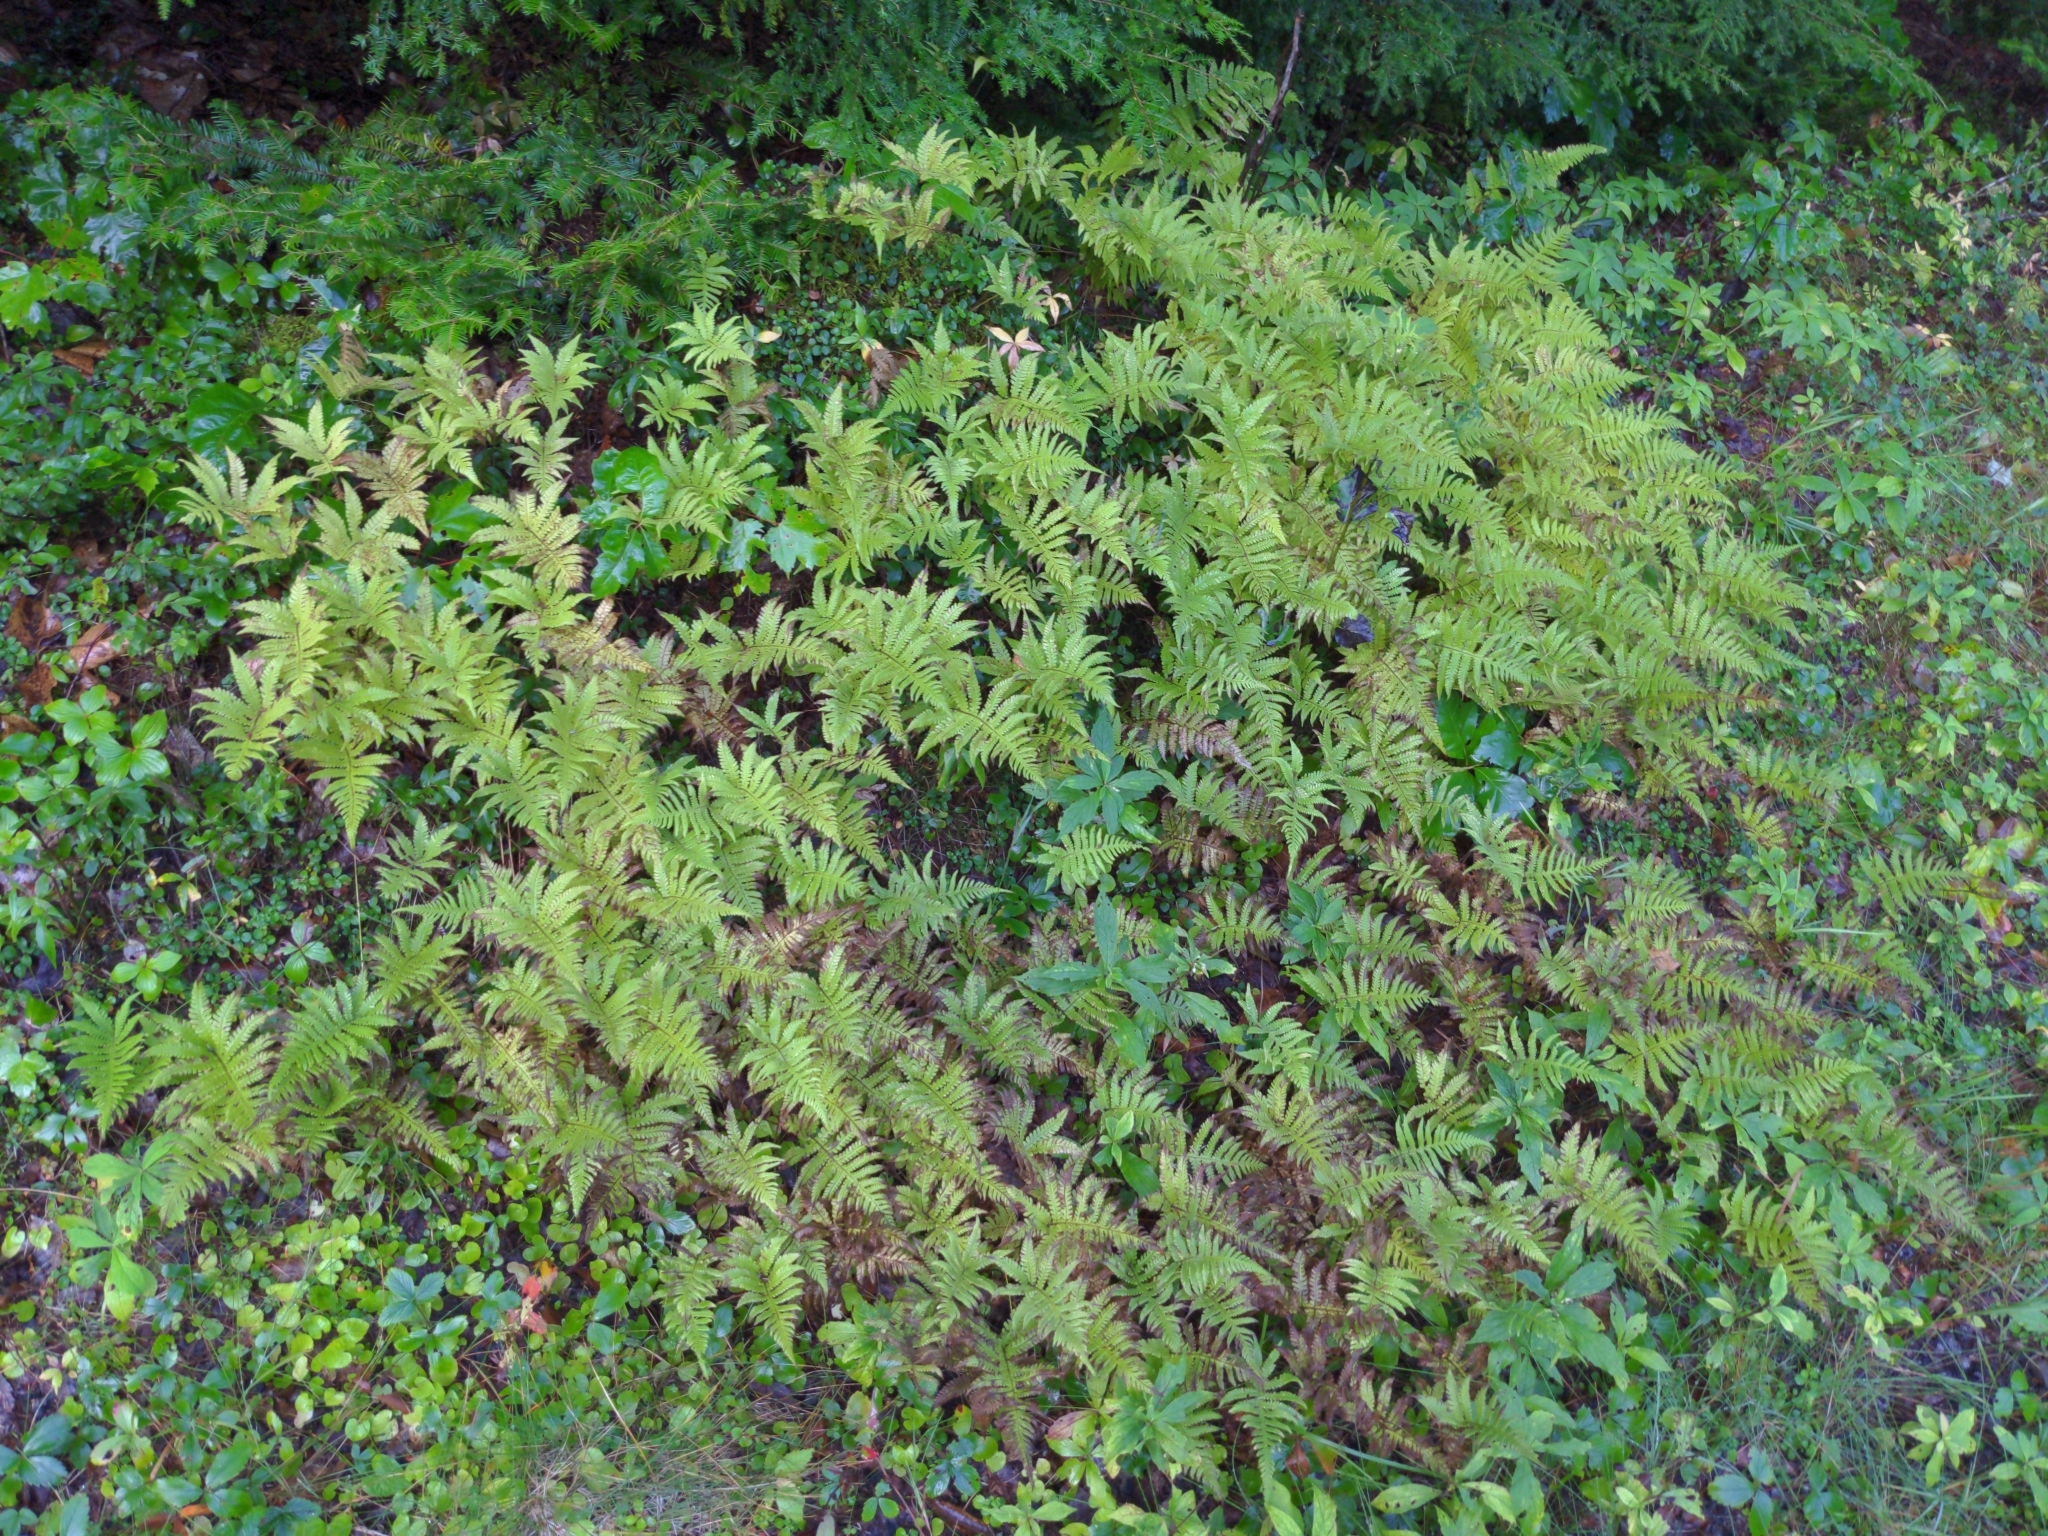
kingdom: Plantae
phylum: Tracheophyta
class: Polypodiopsida
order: Polypodiales
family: Thelypteridaceae
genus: Phegopteris
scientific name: Phegopteris connectilis
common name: Beech fern
